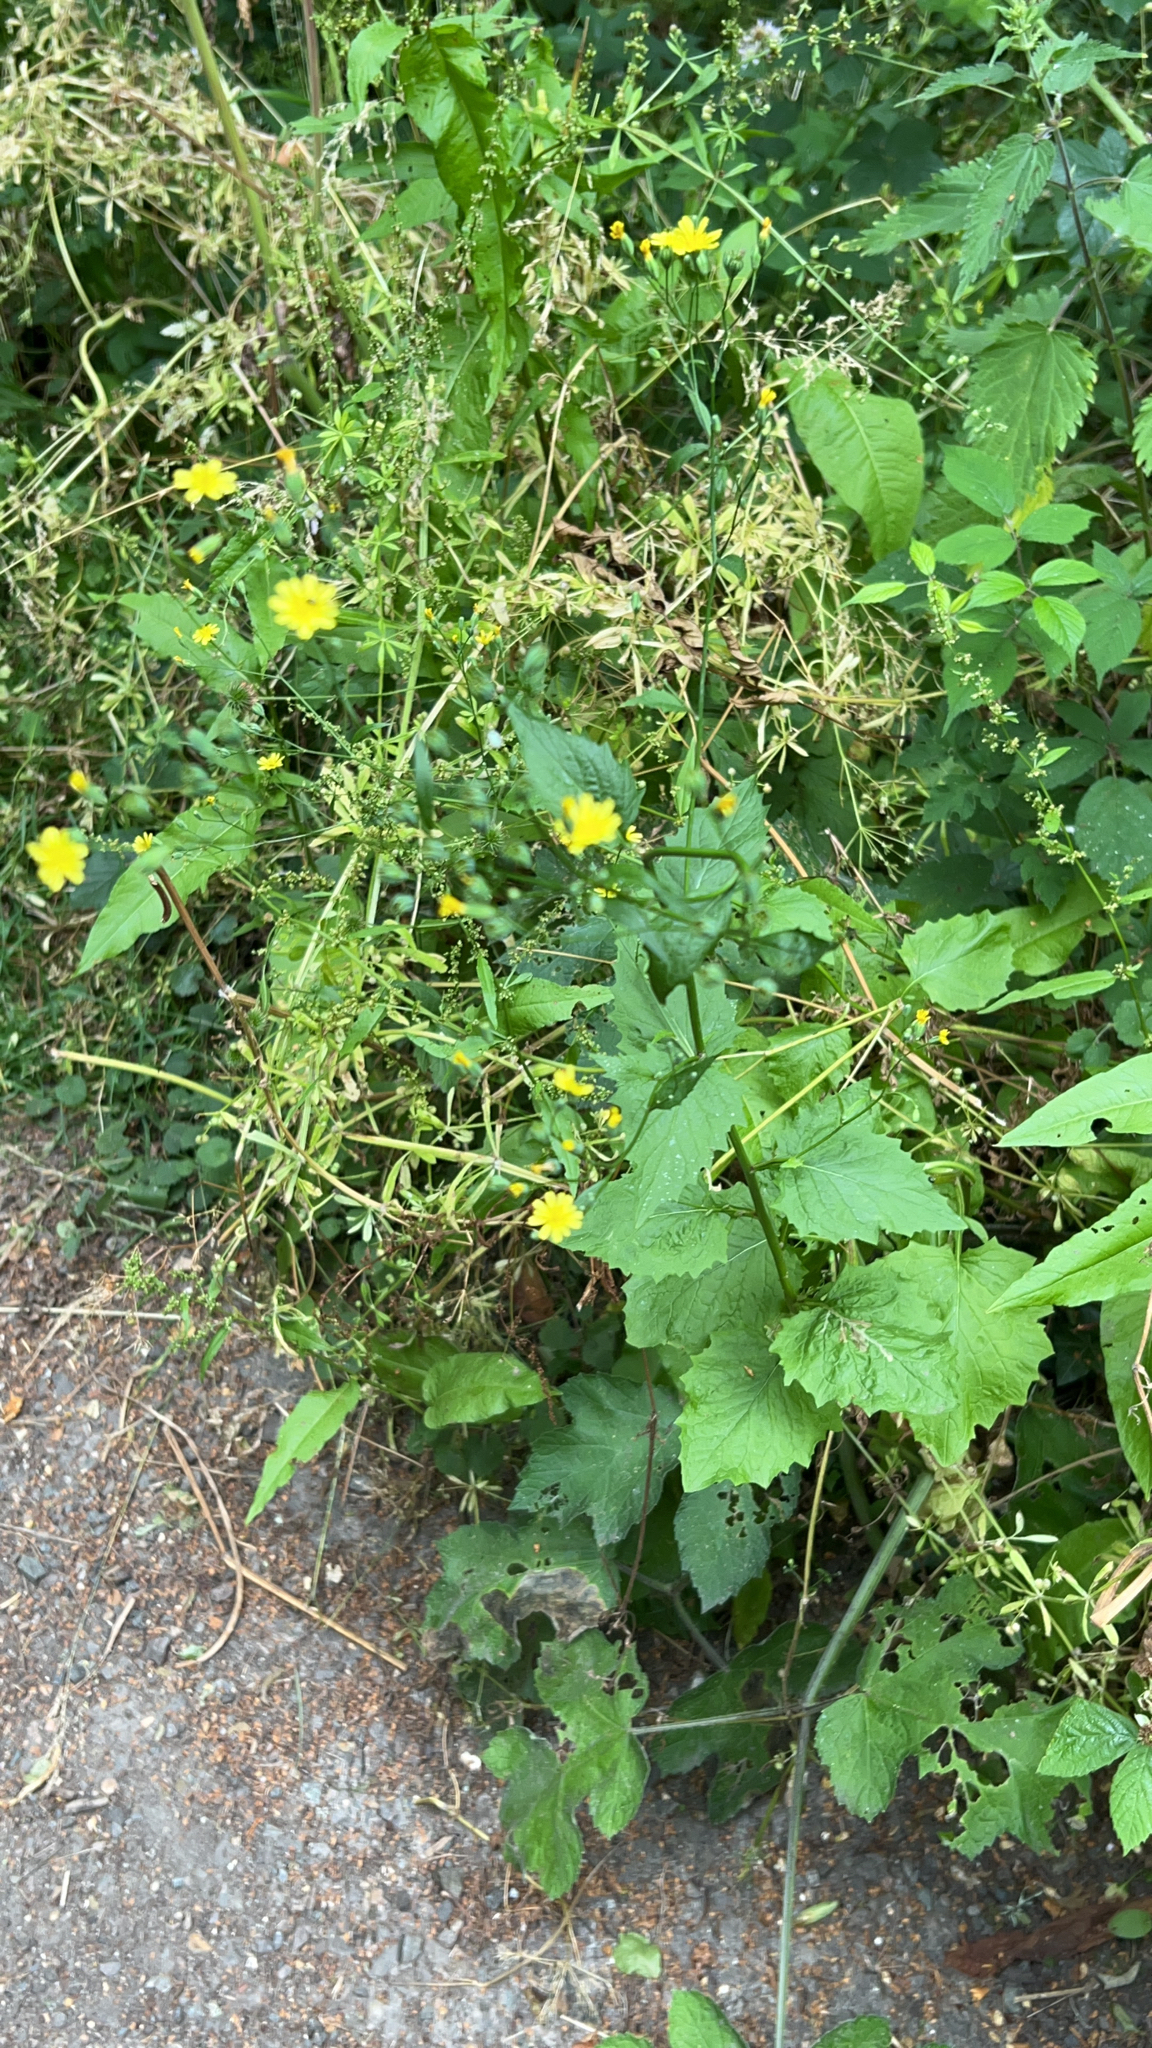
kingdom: Plantae
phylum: Tracheophyta
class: Magnoliopsida
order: Asterales
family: Asteraceae
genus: Lapsana
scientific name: Lapsana communis
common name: Nipplewort
